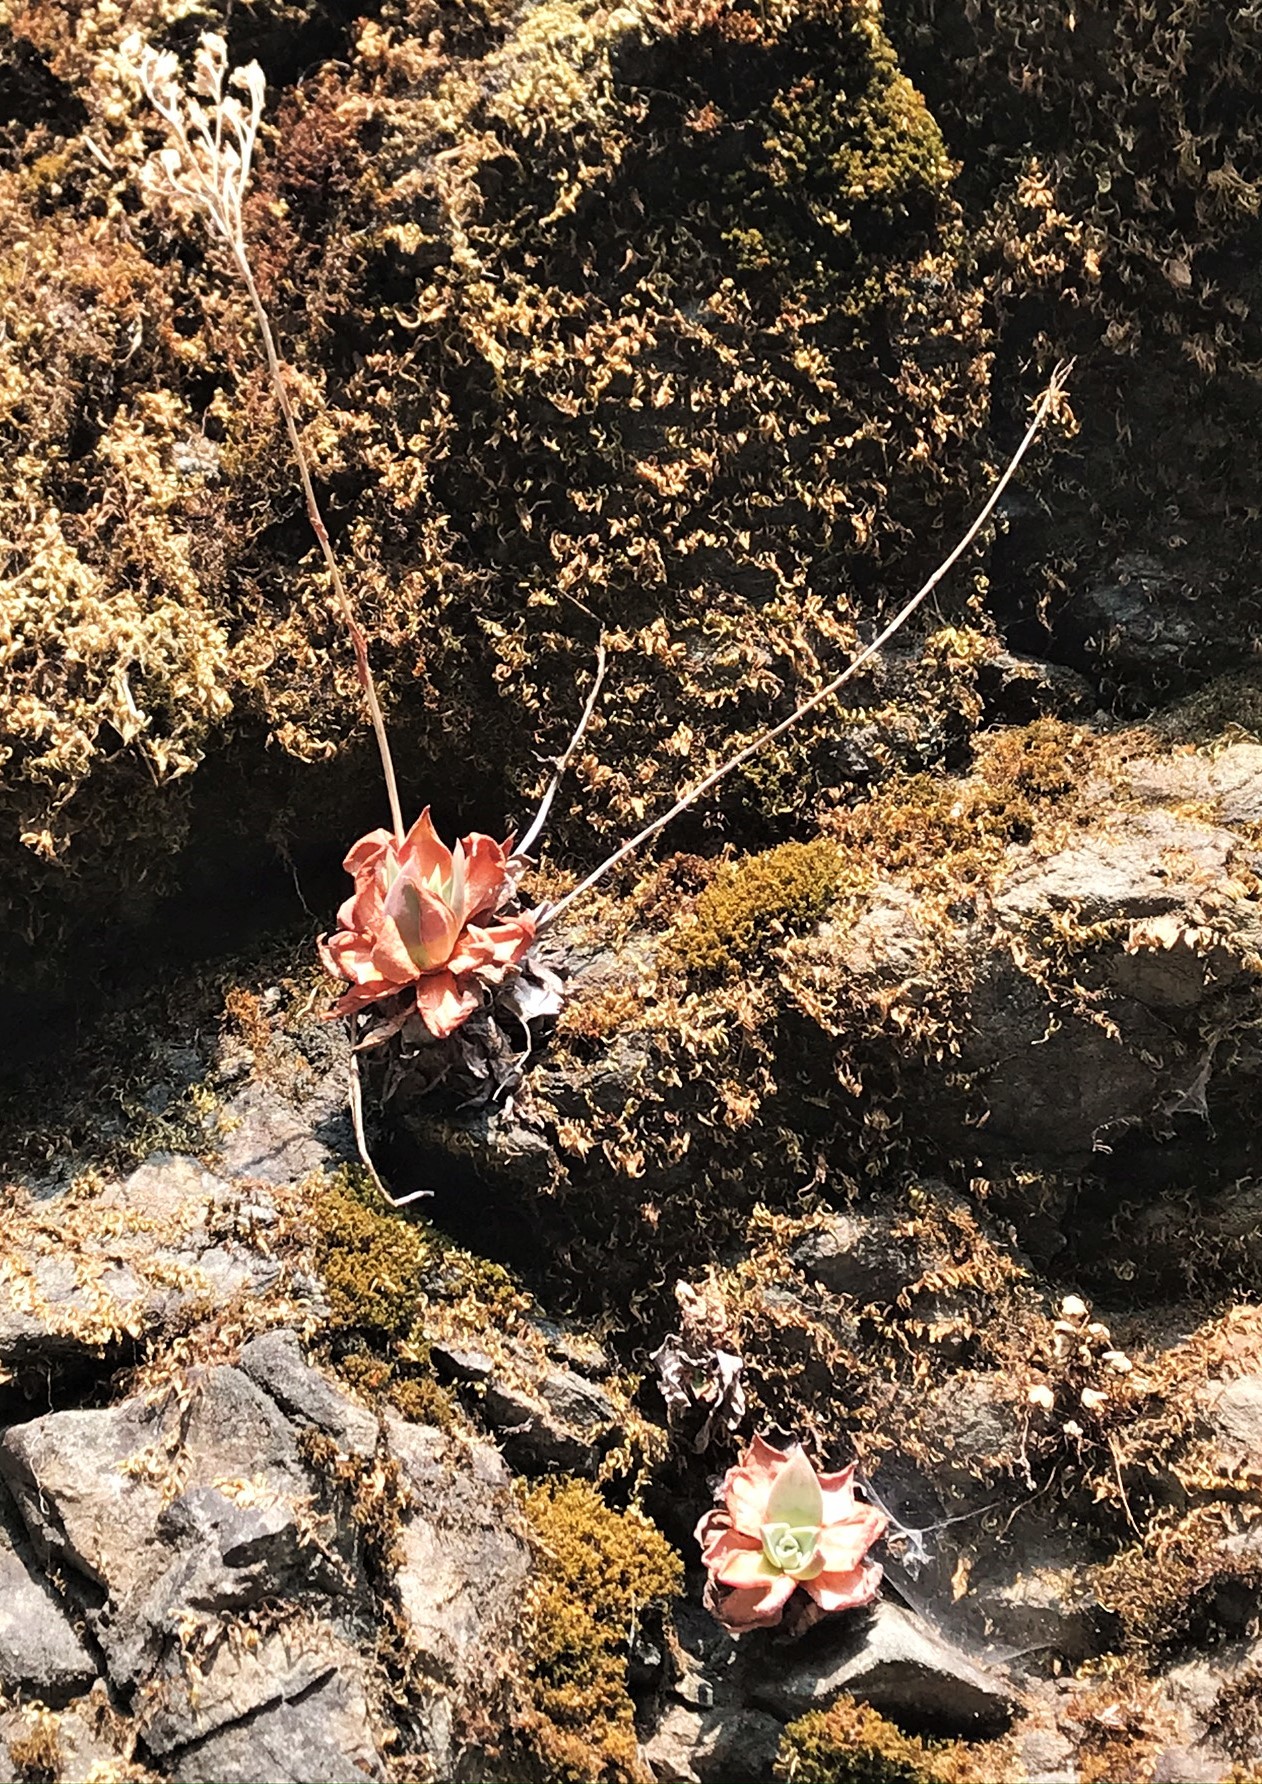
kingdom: Plantae
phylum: Tracheophyta
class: Magnoliopsida
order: Saxifragales
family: Crassulaceae
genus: Dudleya
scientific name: Dudleya cymosa
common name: Canyon dudleya
